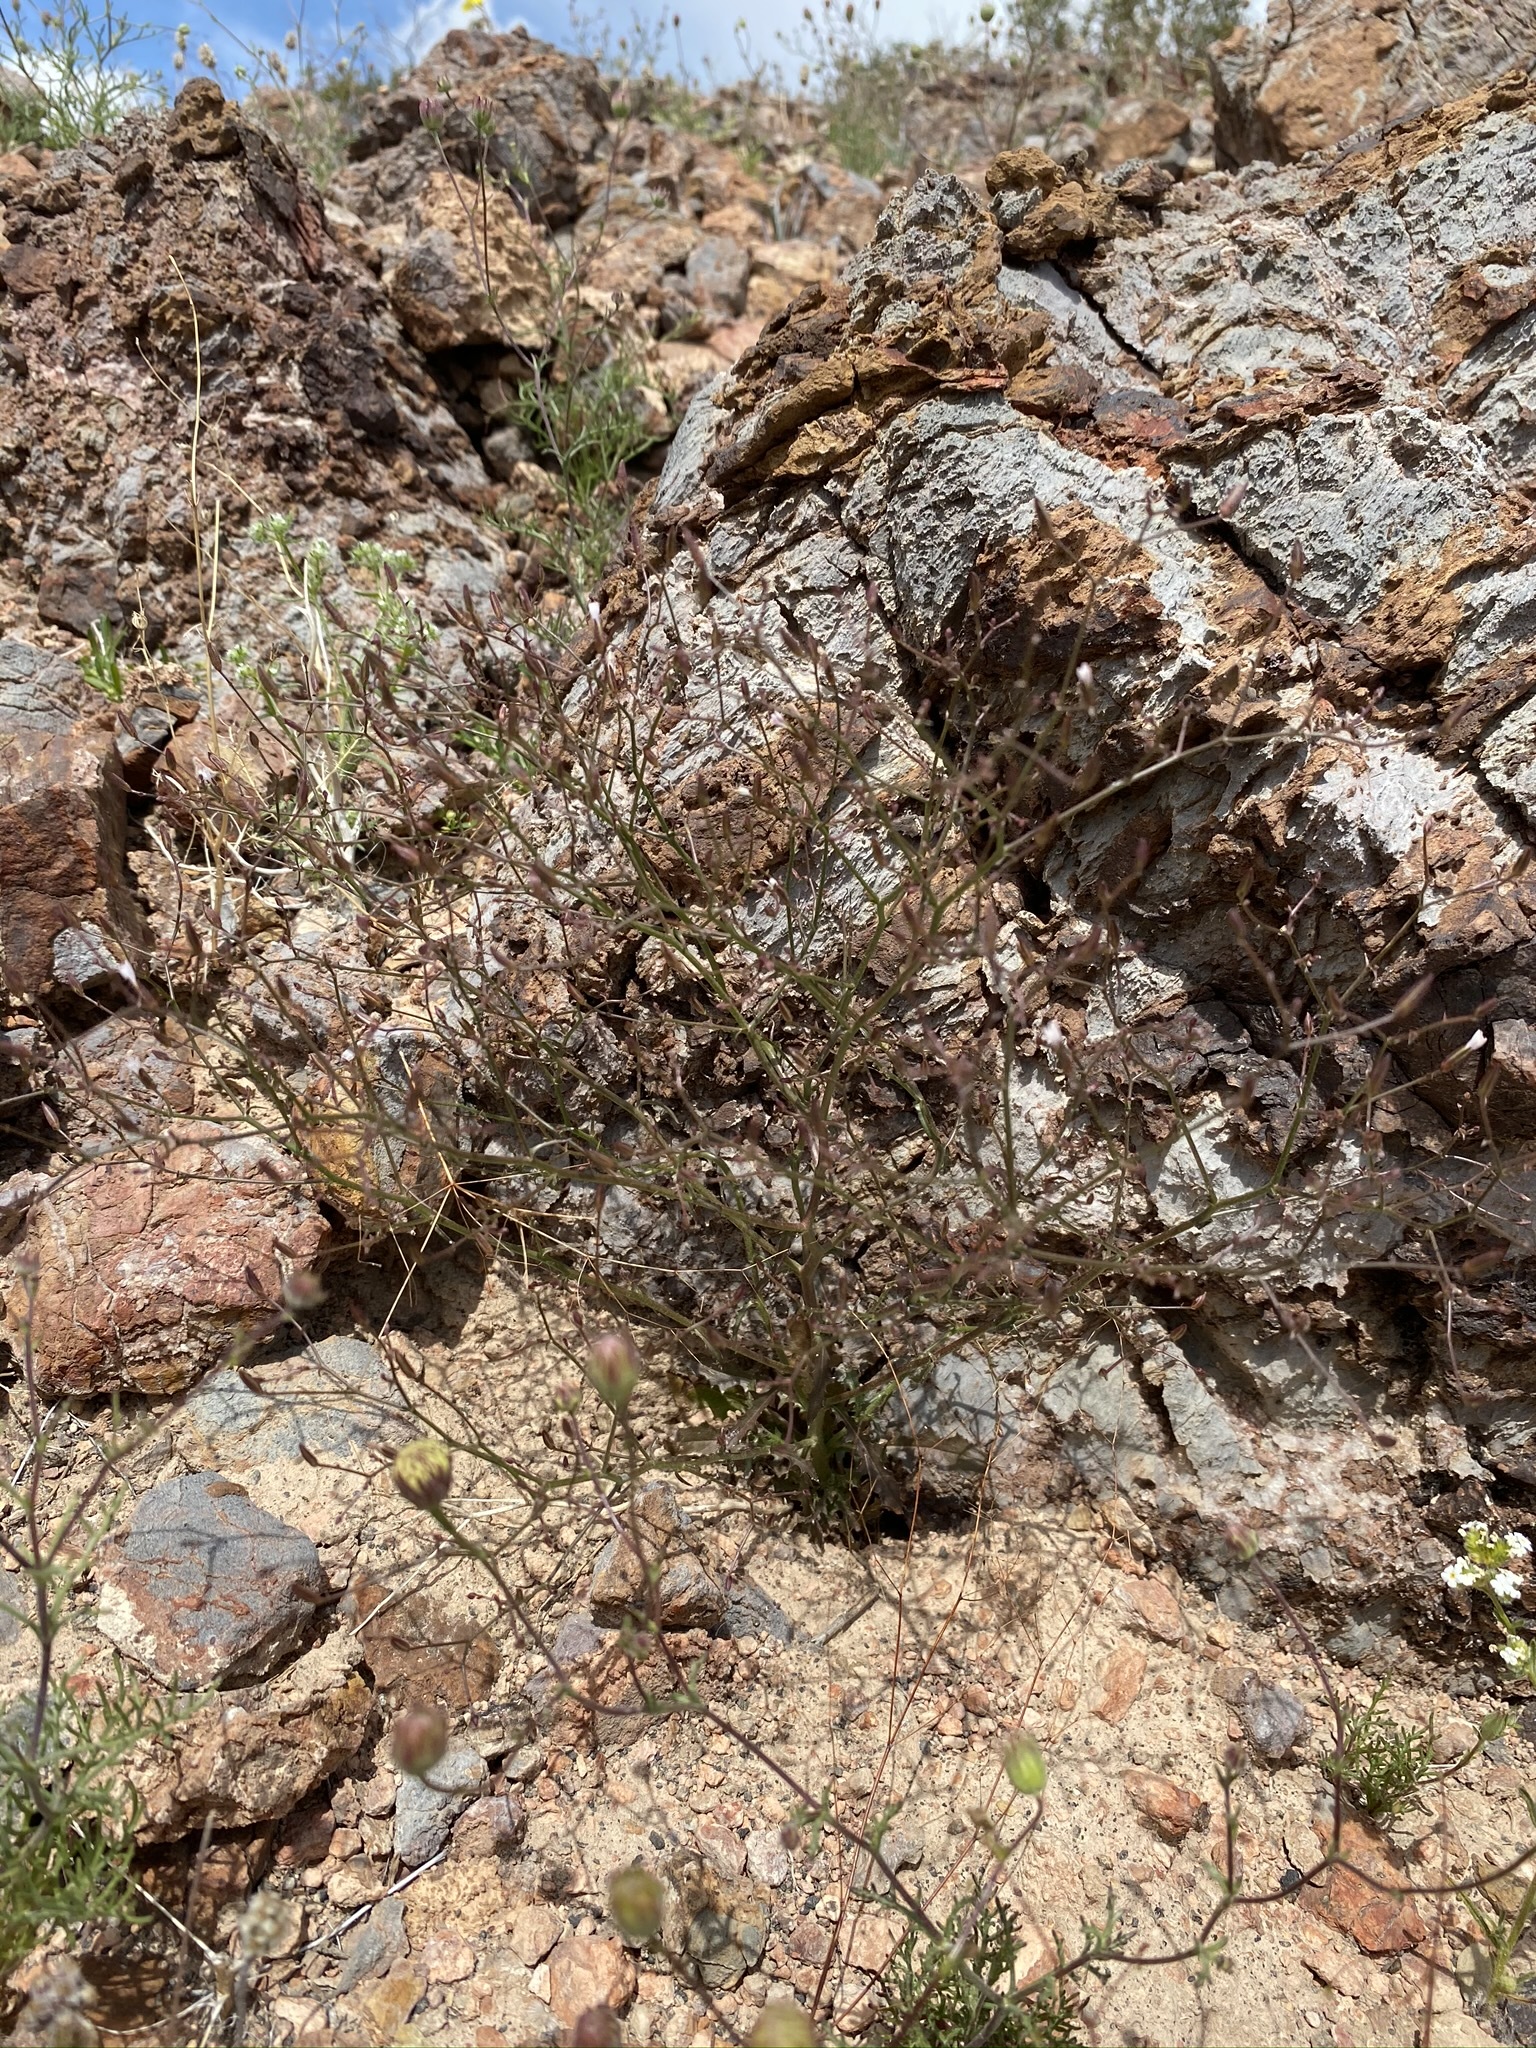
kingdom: Plantae
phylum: Tracheophyta
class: Magnoliopsida
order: Asterales
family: Asteraceae
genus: Lygodesmia
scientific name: Lygodesmia exigua
